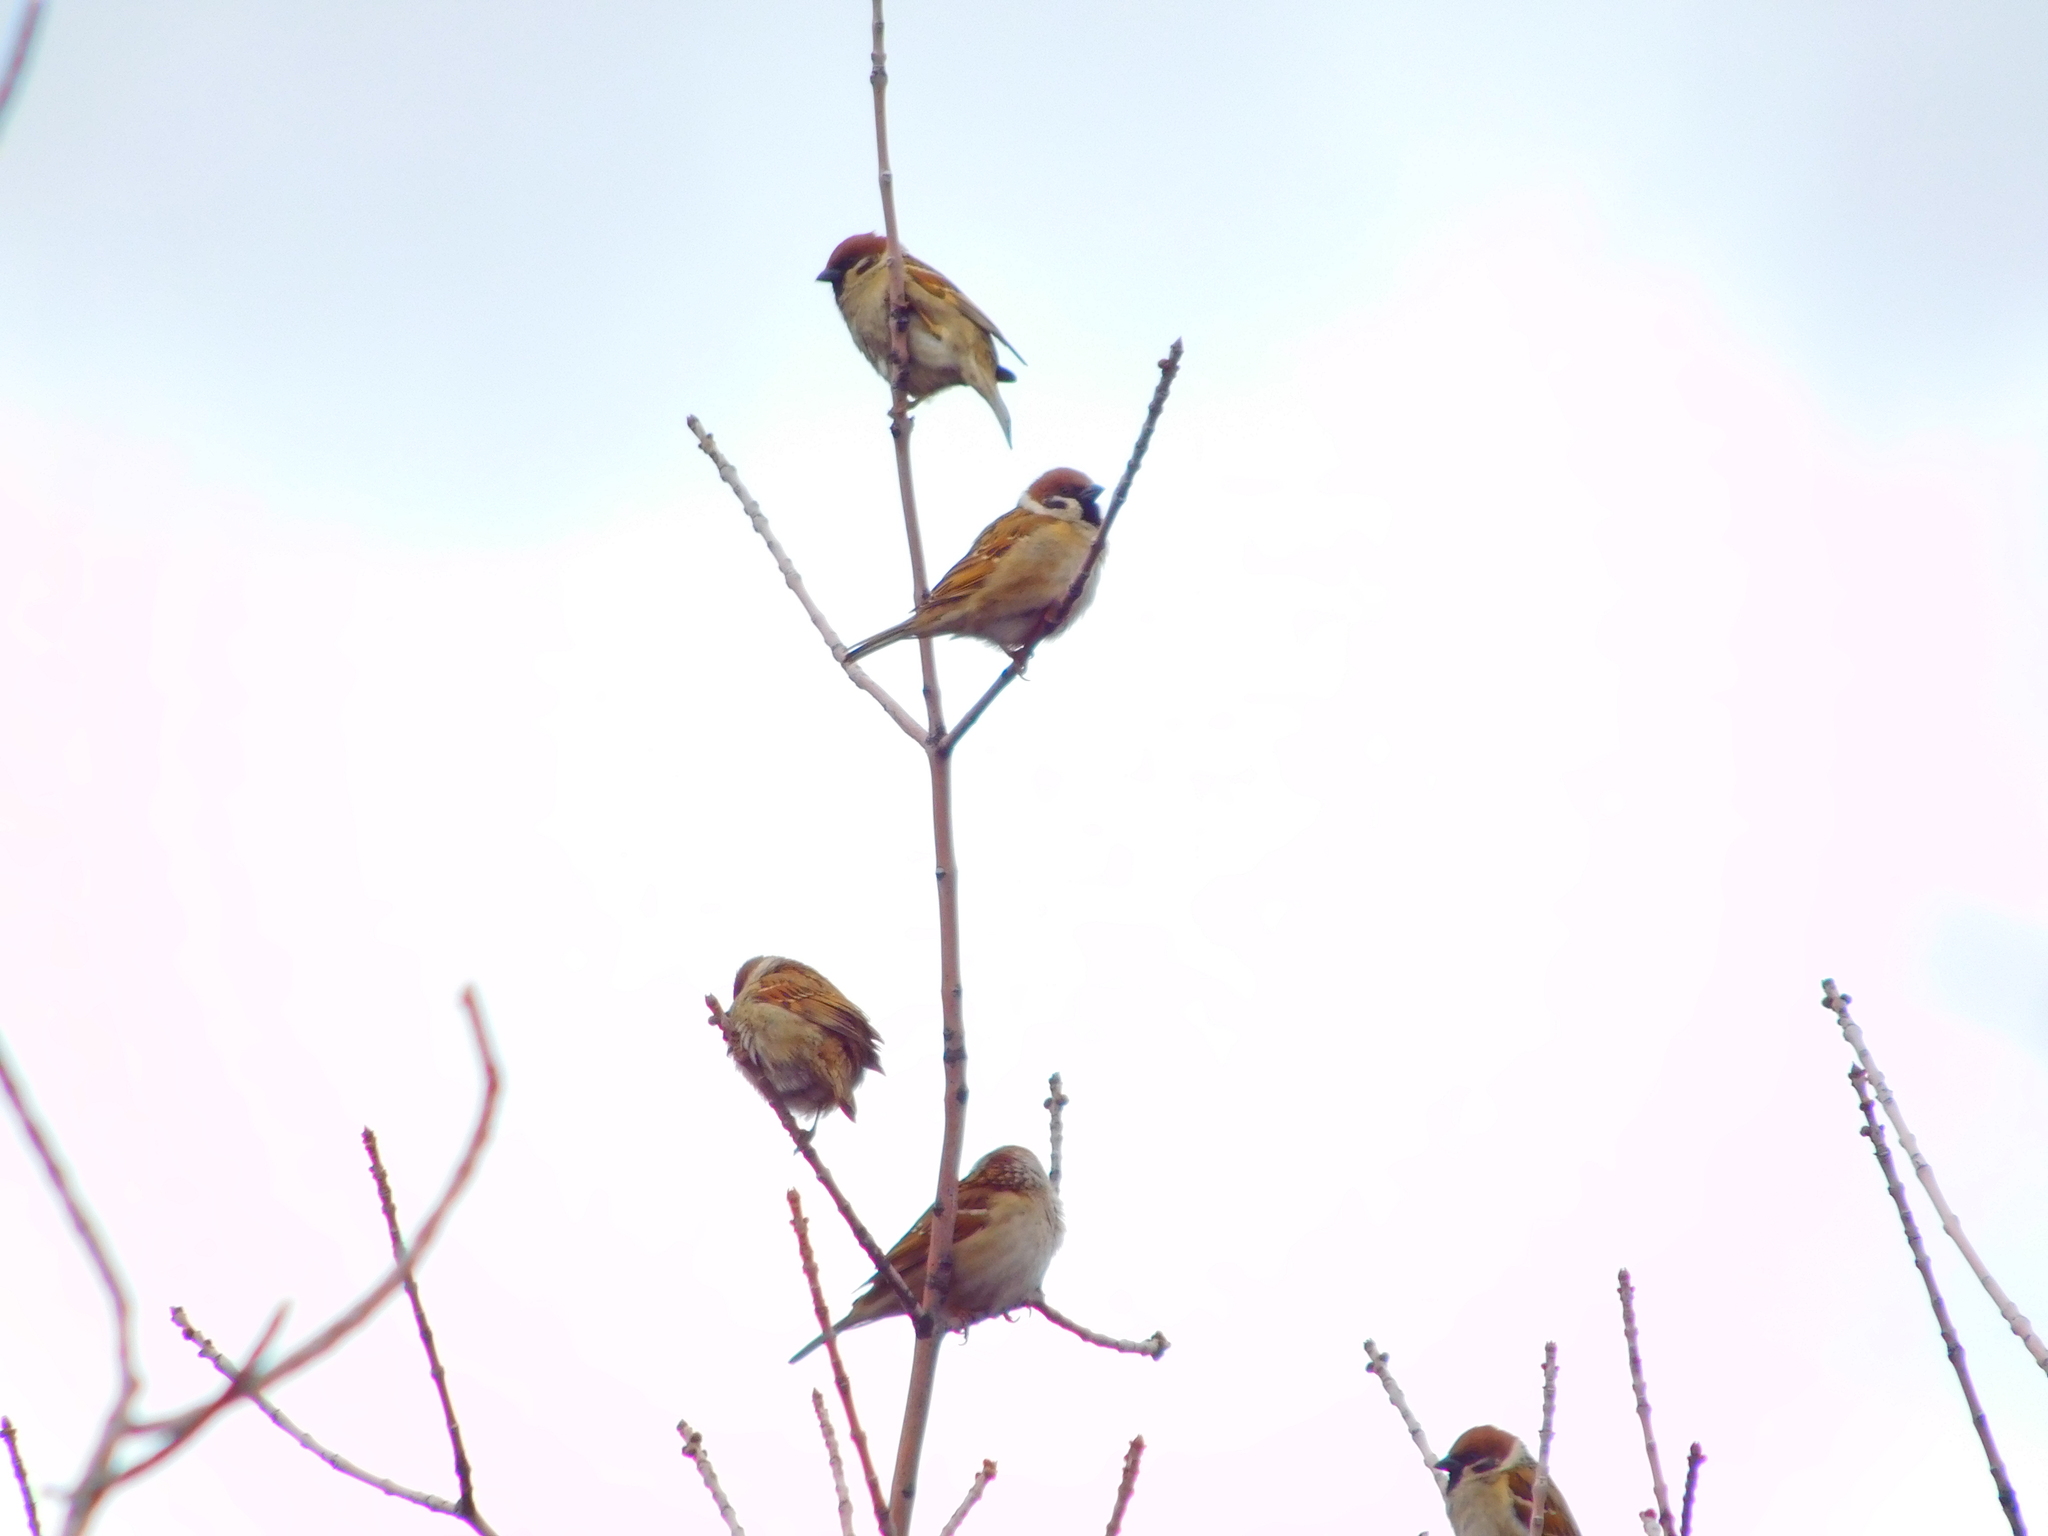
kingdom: Animalia
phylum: Chordata
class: Aves
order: Passeriformes
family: Passeridae
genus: Passer
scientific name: Passer montanus
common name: Eurasian tree sparrow
